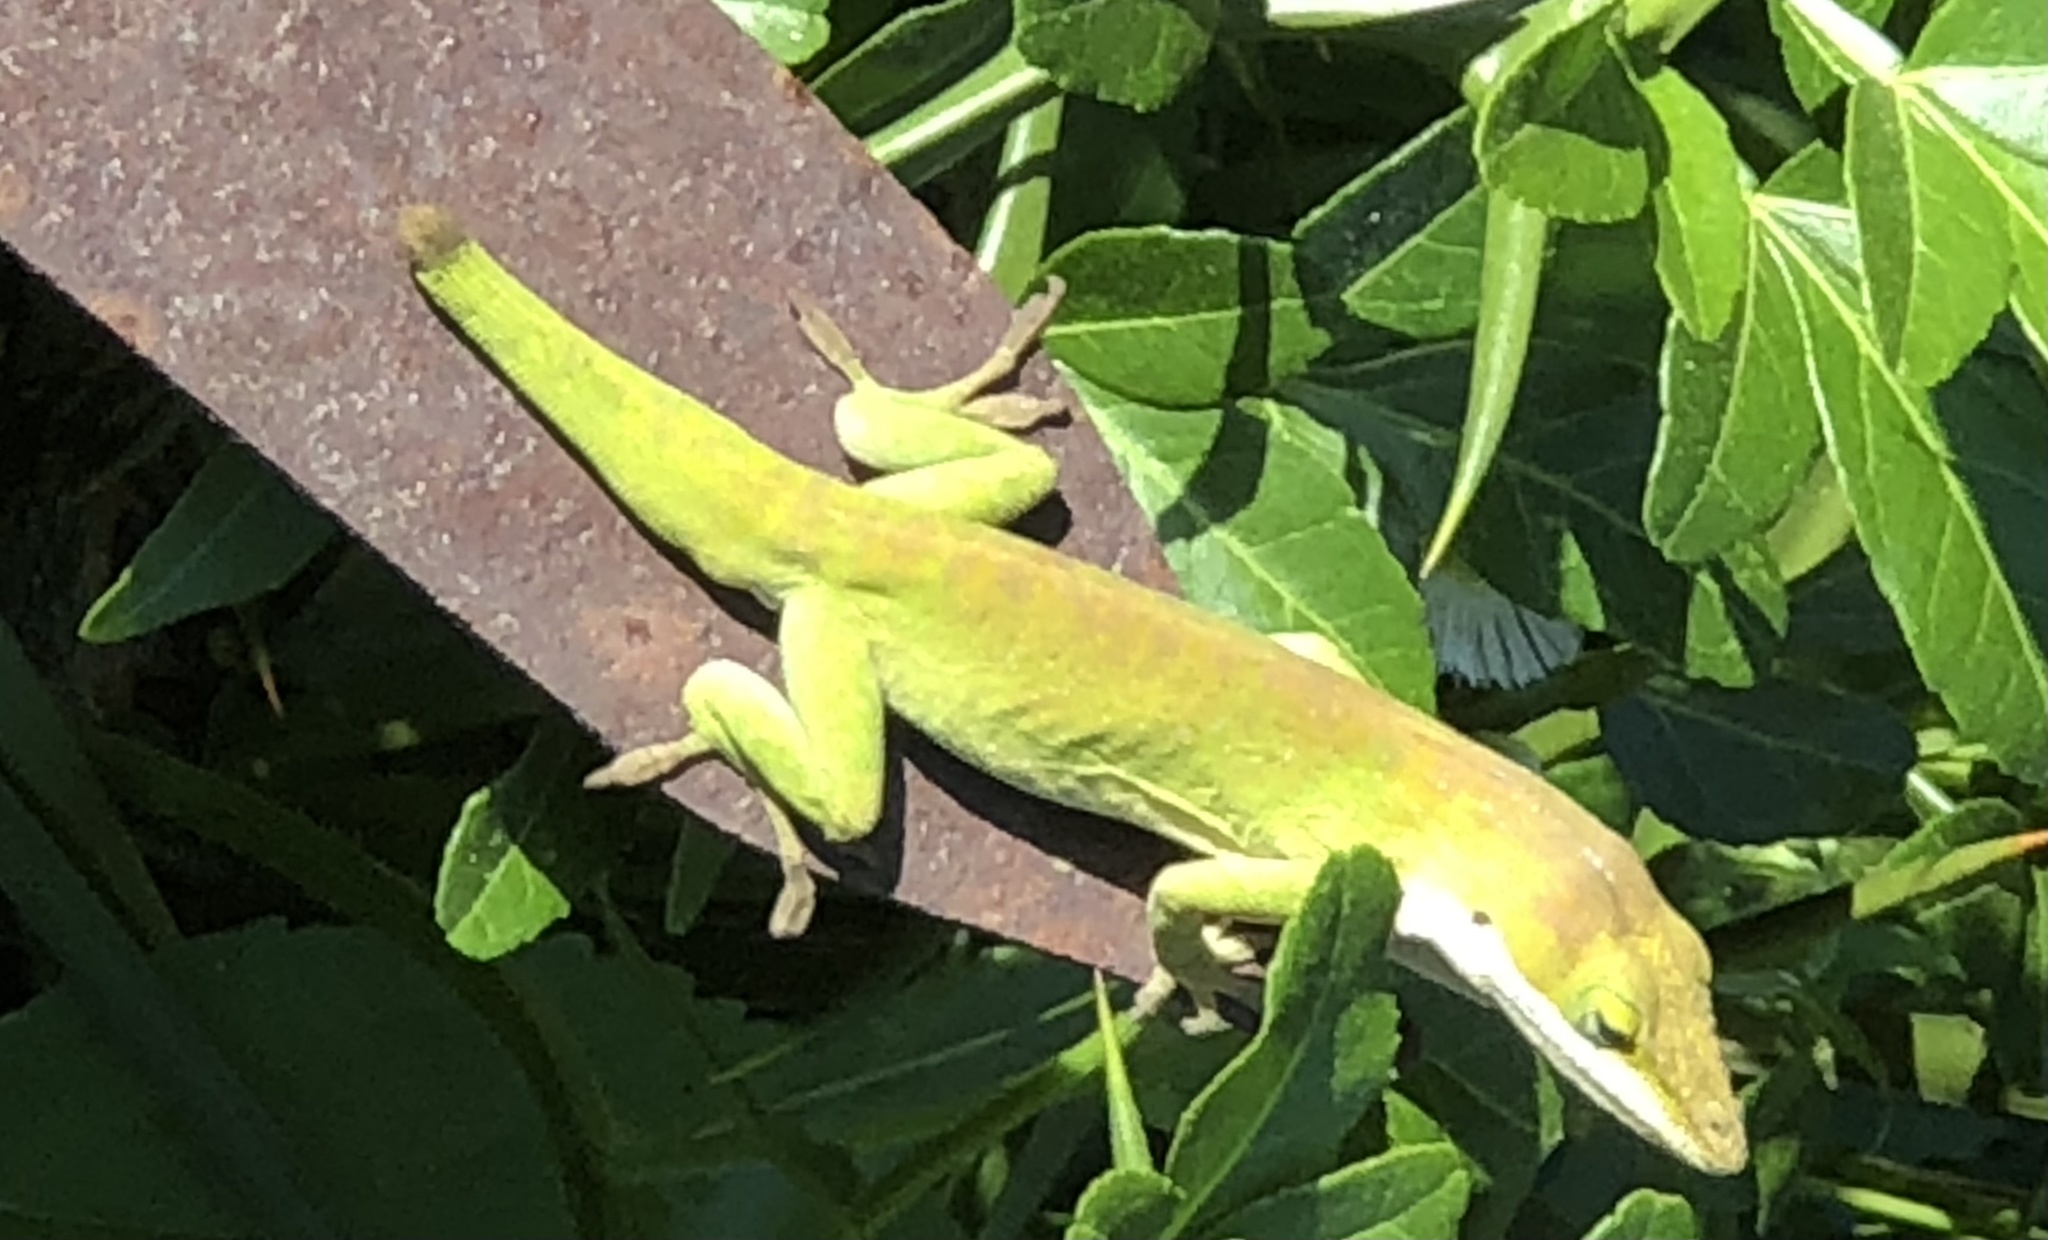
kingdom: Animalia
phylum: Chordata
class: Squamata
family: Dactyloidae
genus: Anolis
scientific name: Anolis carolinensis
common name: Green anole
